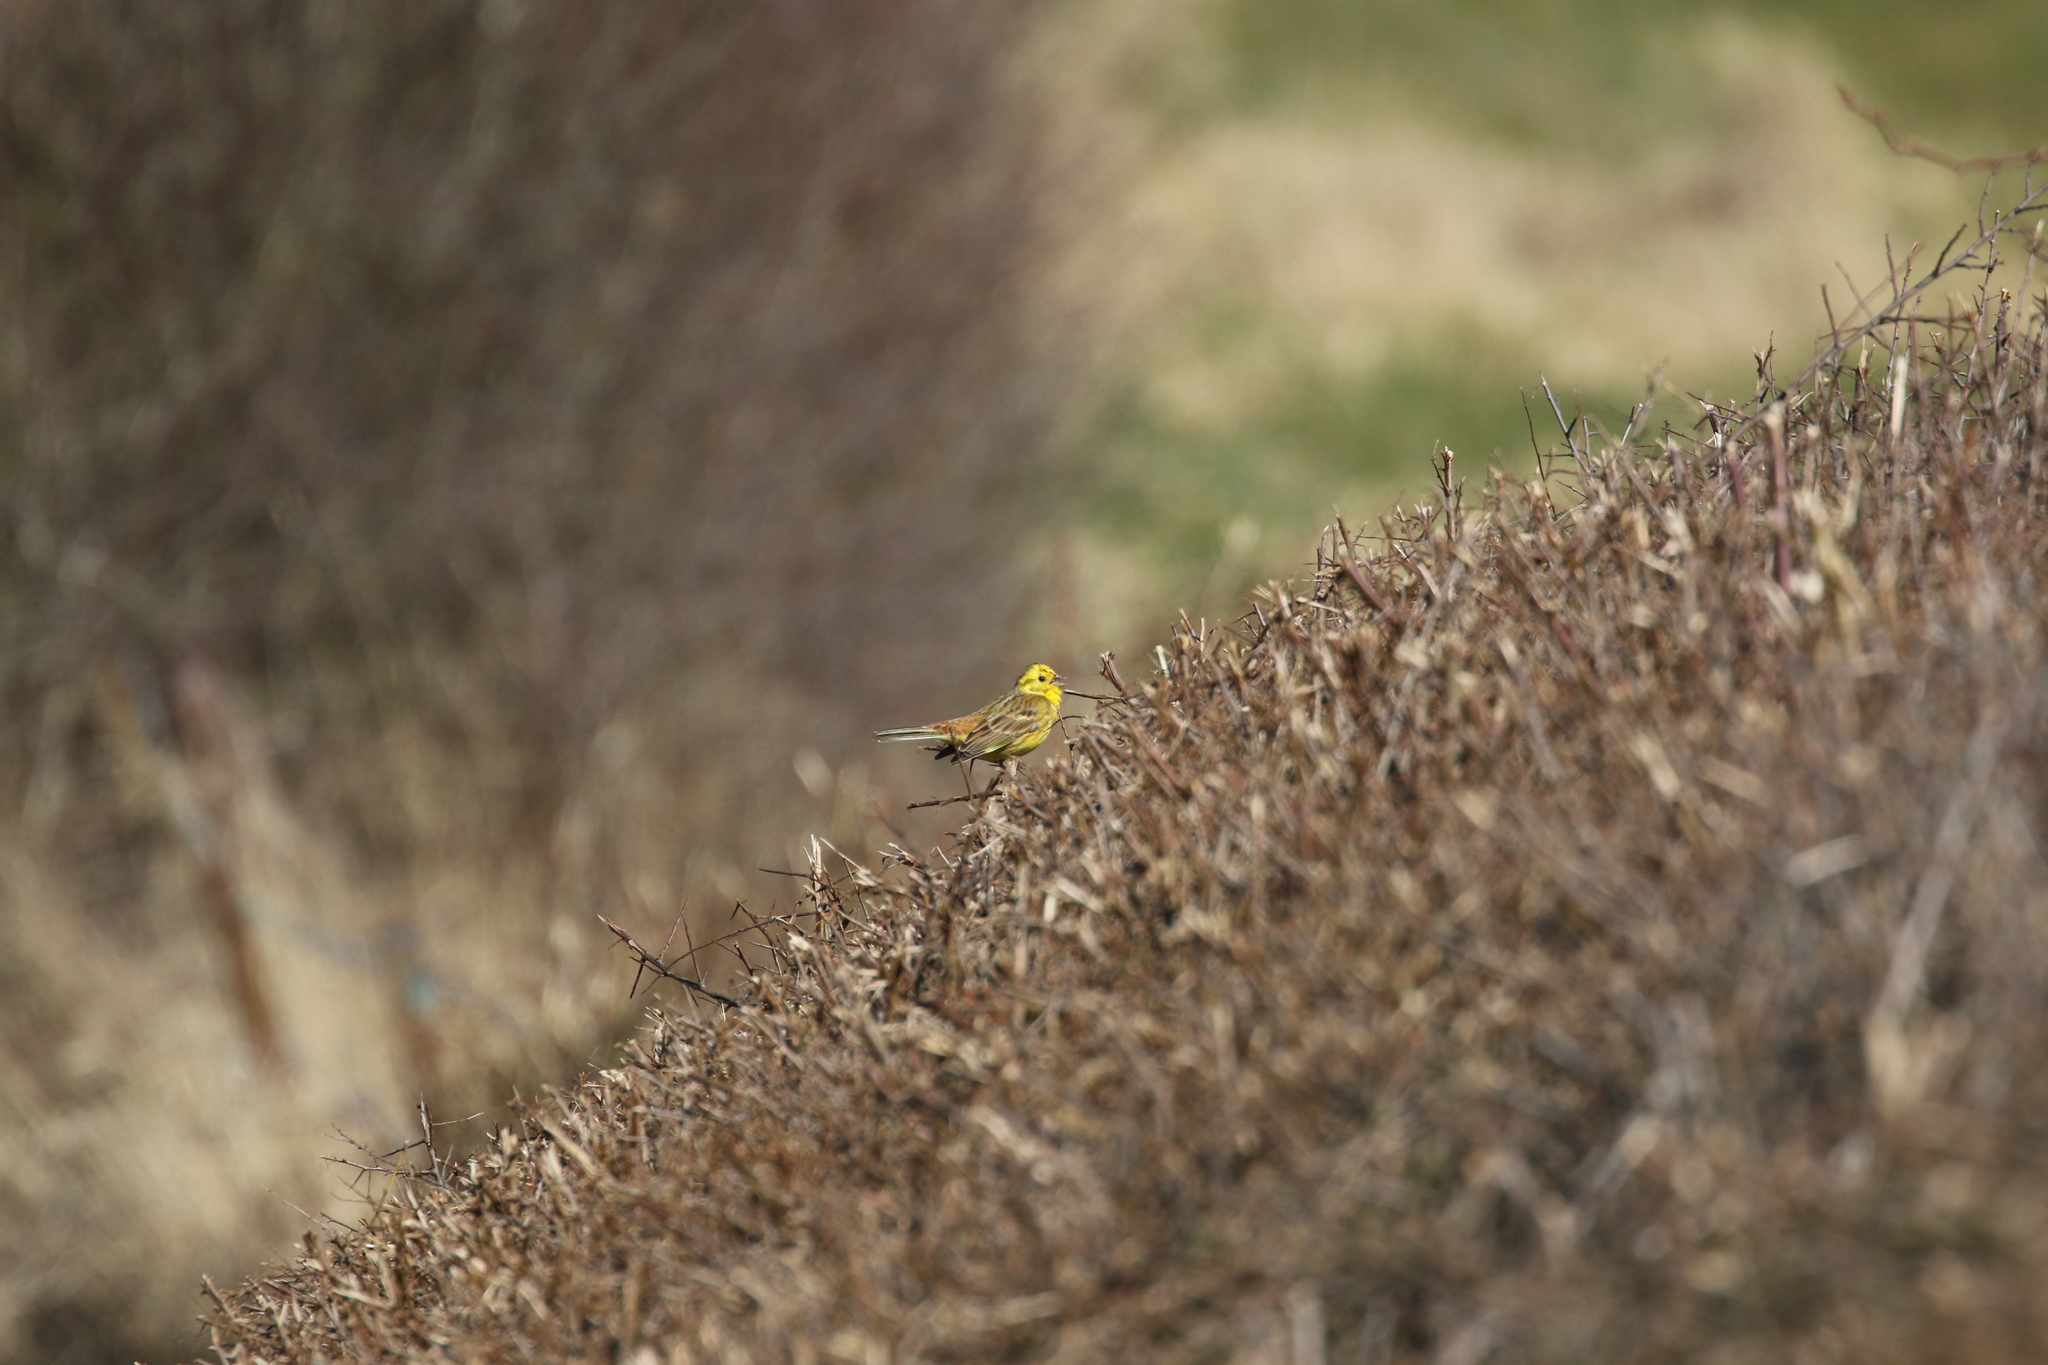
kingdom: Animalia
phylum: Chordata
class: Aves
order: Passeriformes
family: Emberizidae
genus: Emberiza
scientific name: Emberiza citrinella
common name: Yellowhammer
